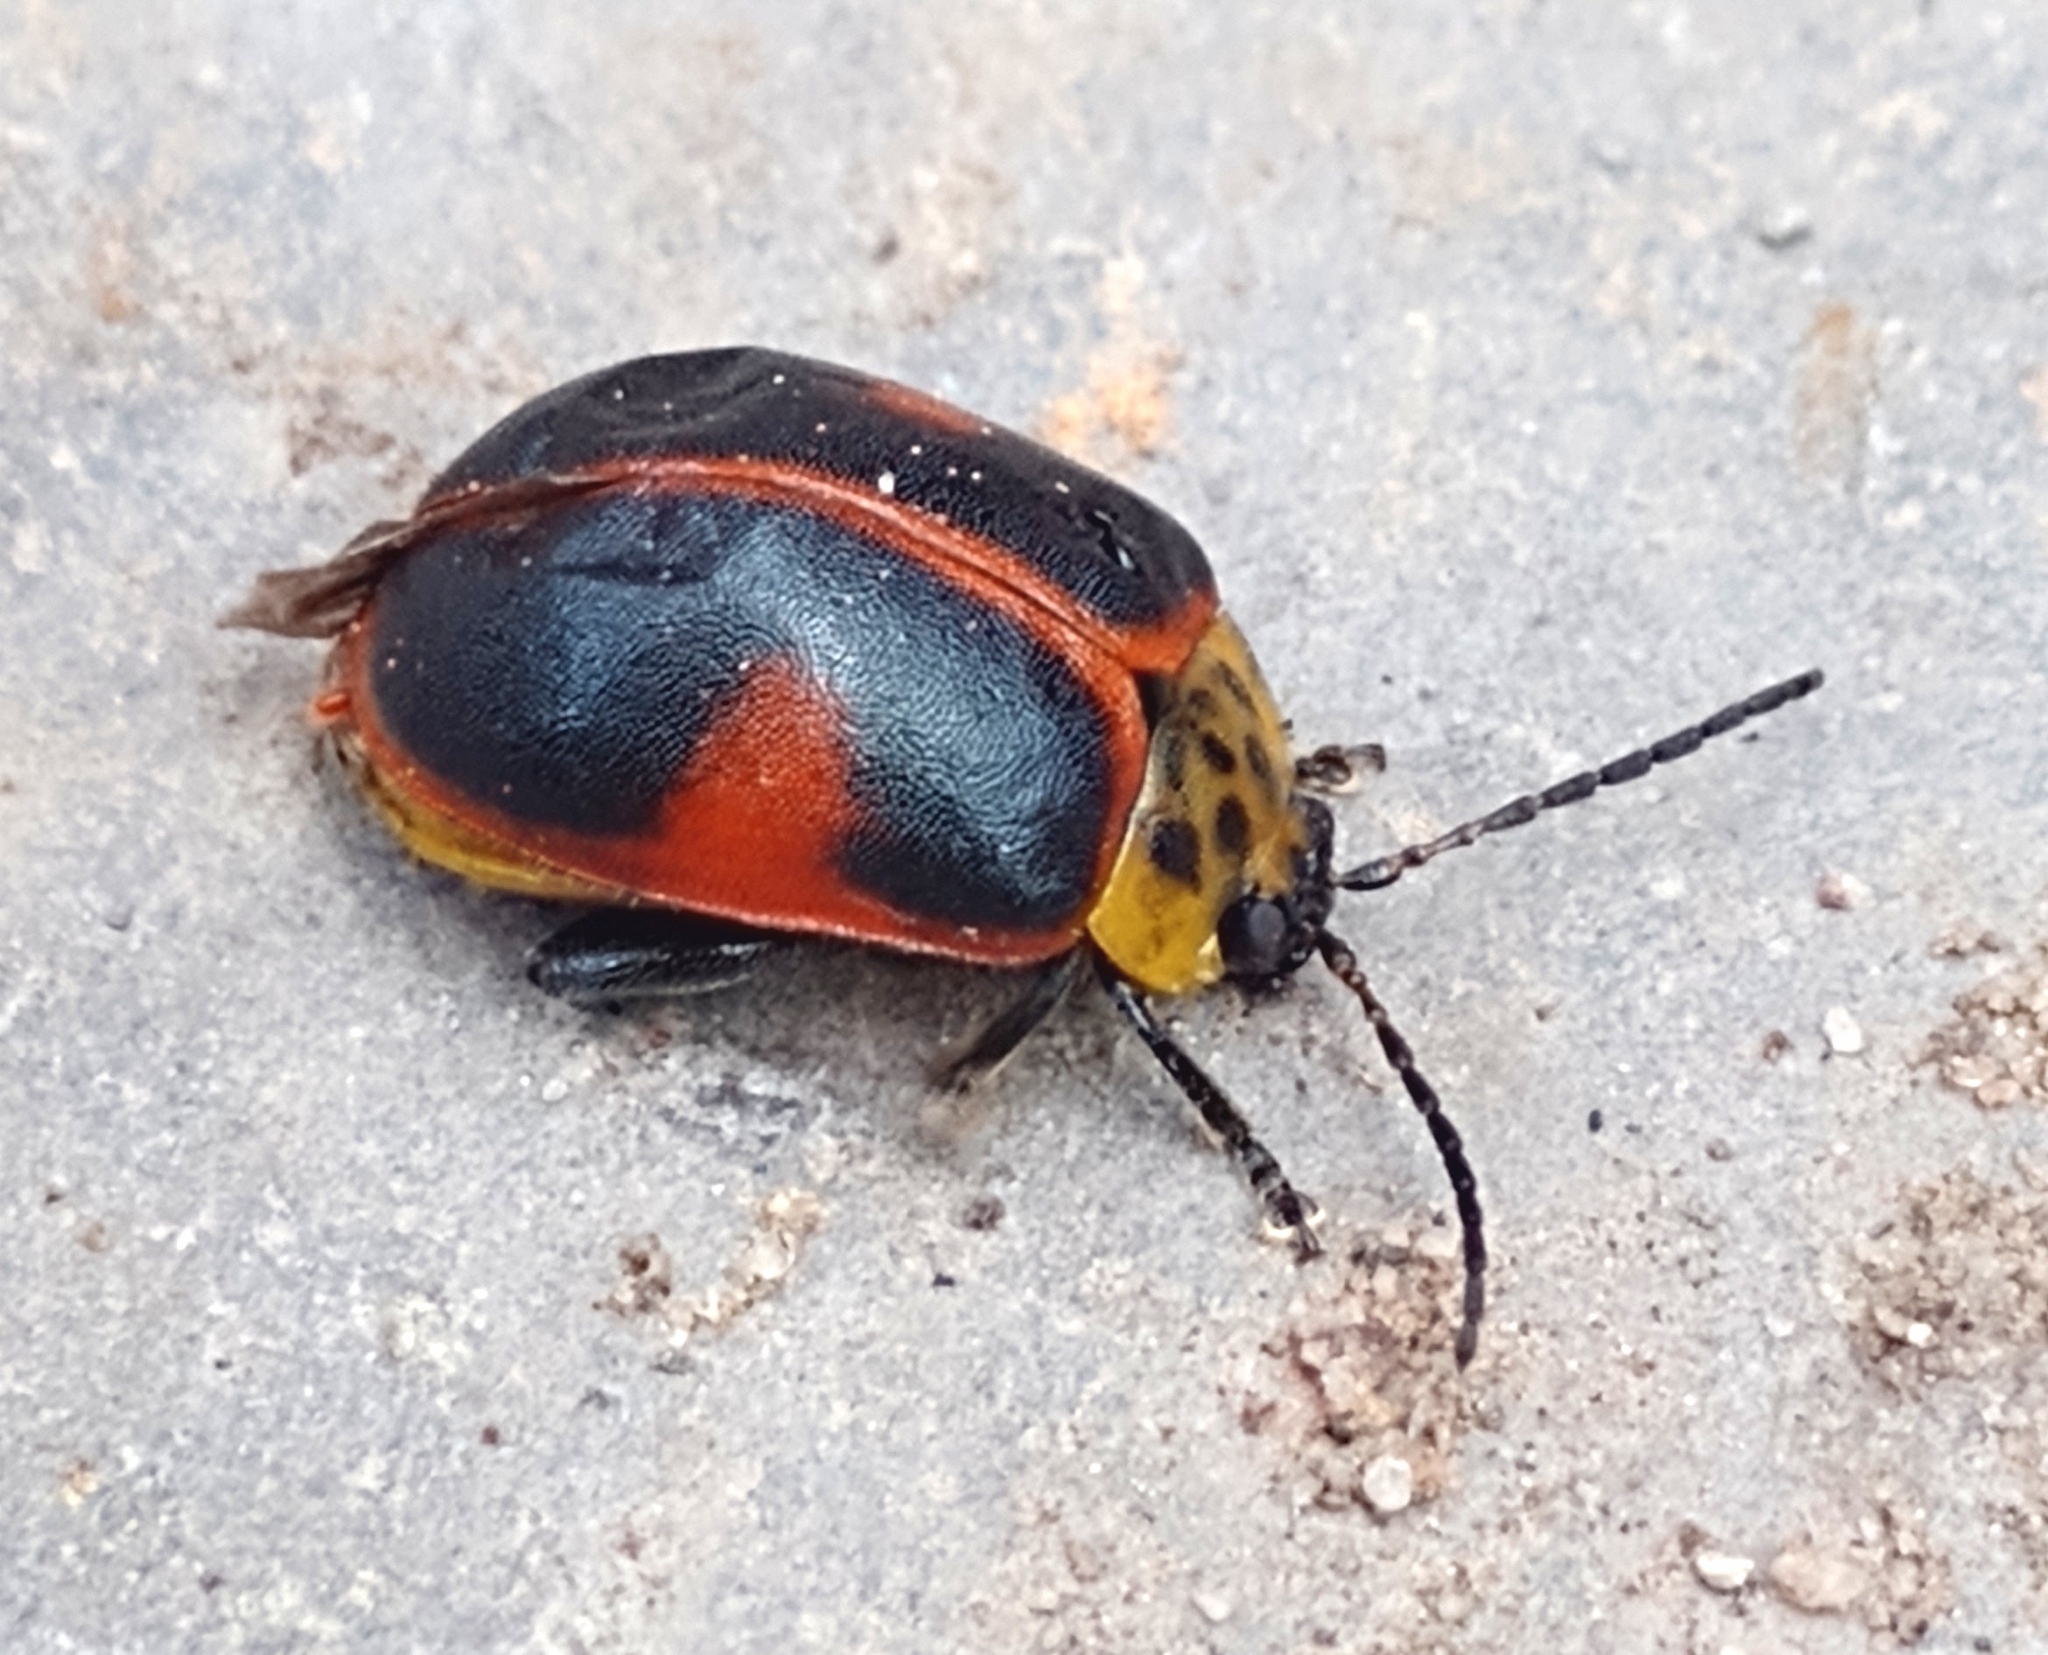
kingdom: Animalia
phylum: Arthropoda
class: Insecta
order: Coleoptera
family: Chrysomelidae
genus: Paranaita
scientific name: Paranaita
